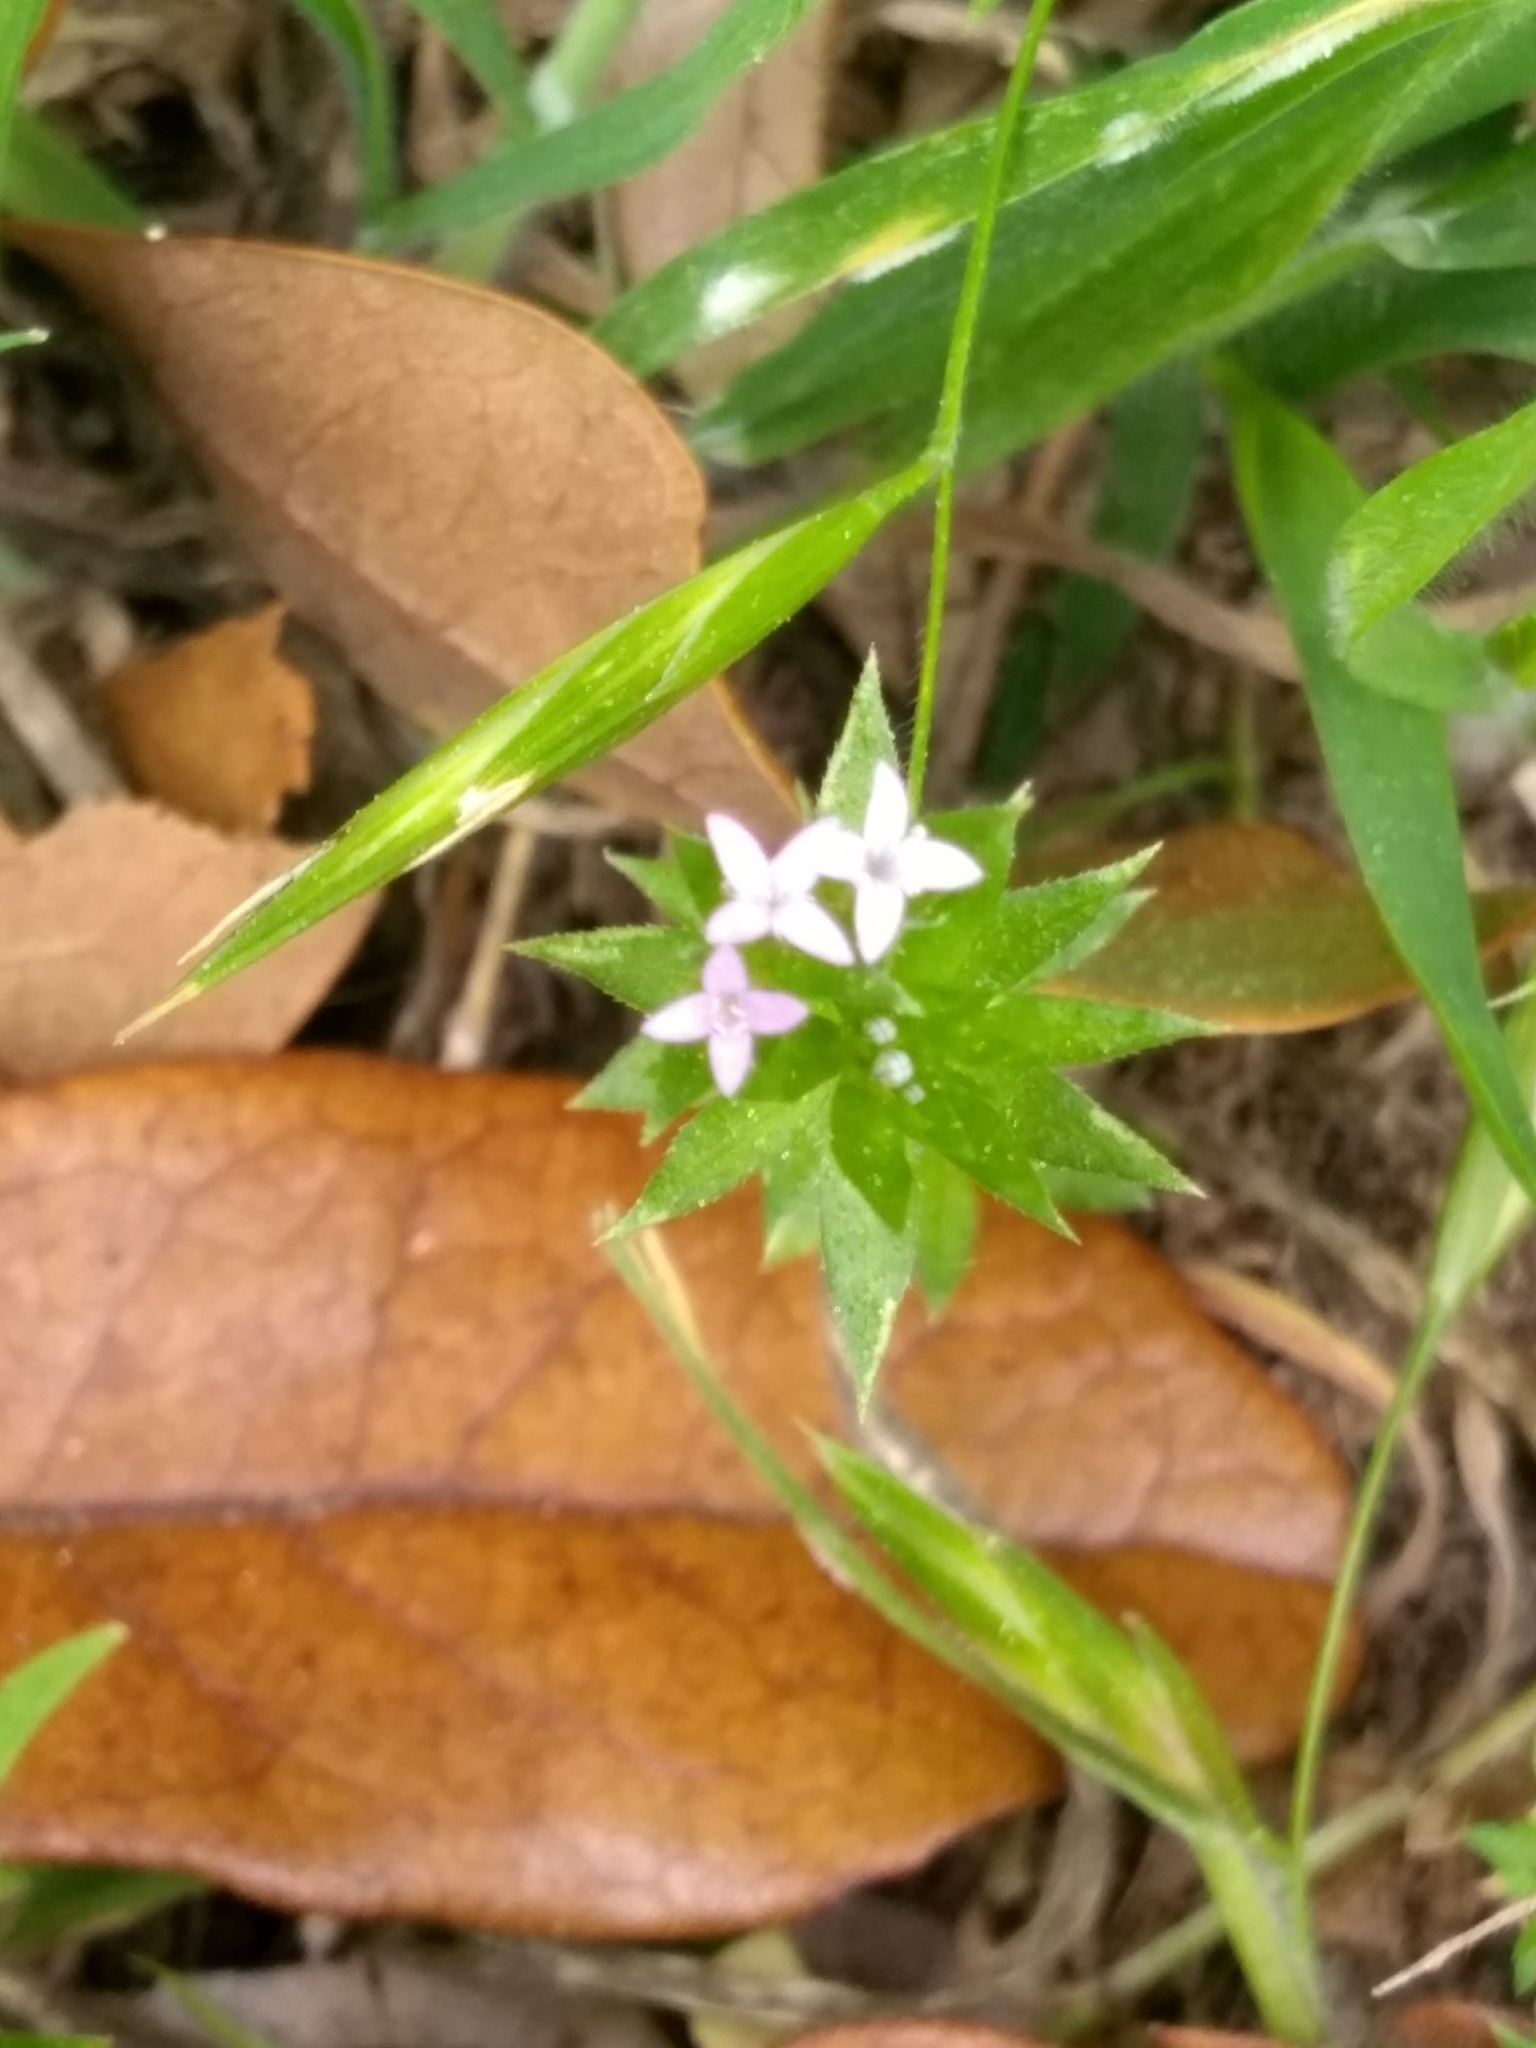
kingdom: Plantae
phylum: Tracheophyta
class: Magnoliopsida
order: Gentianales
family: Rubiaceae
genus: Sherardia
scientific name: Sherardia arvensis
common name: Field madder
